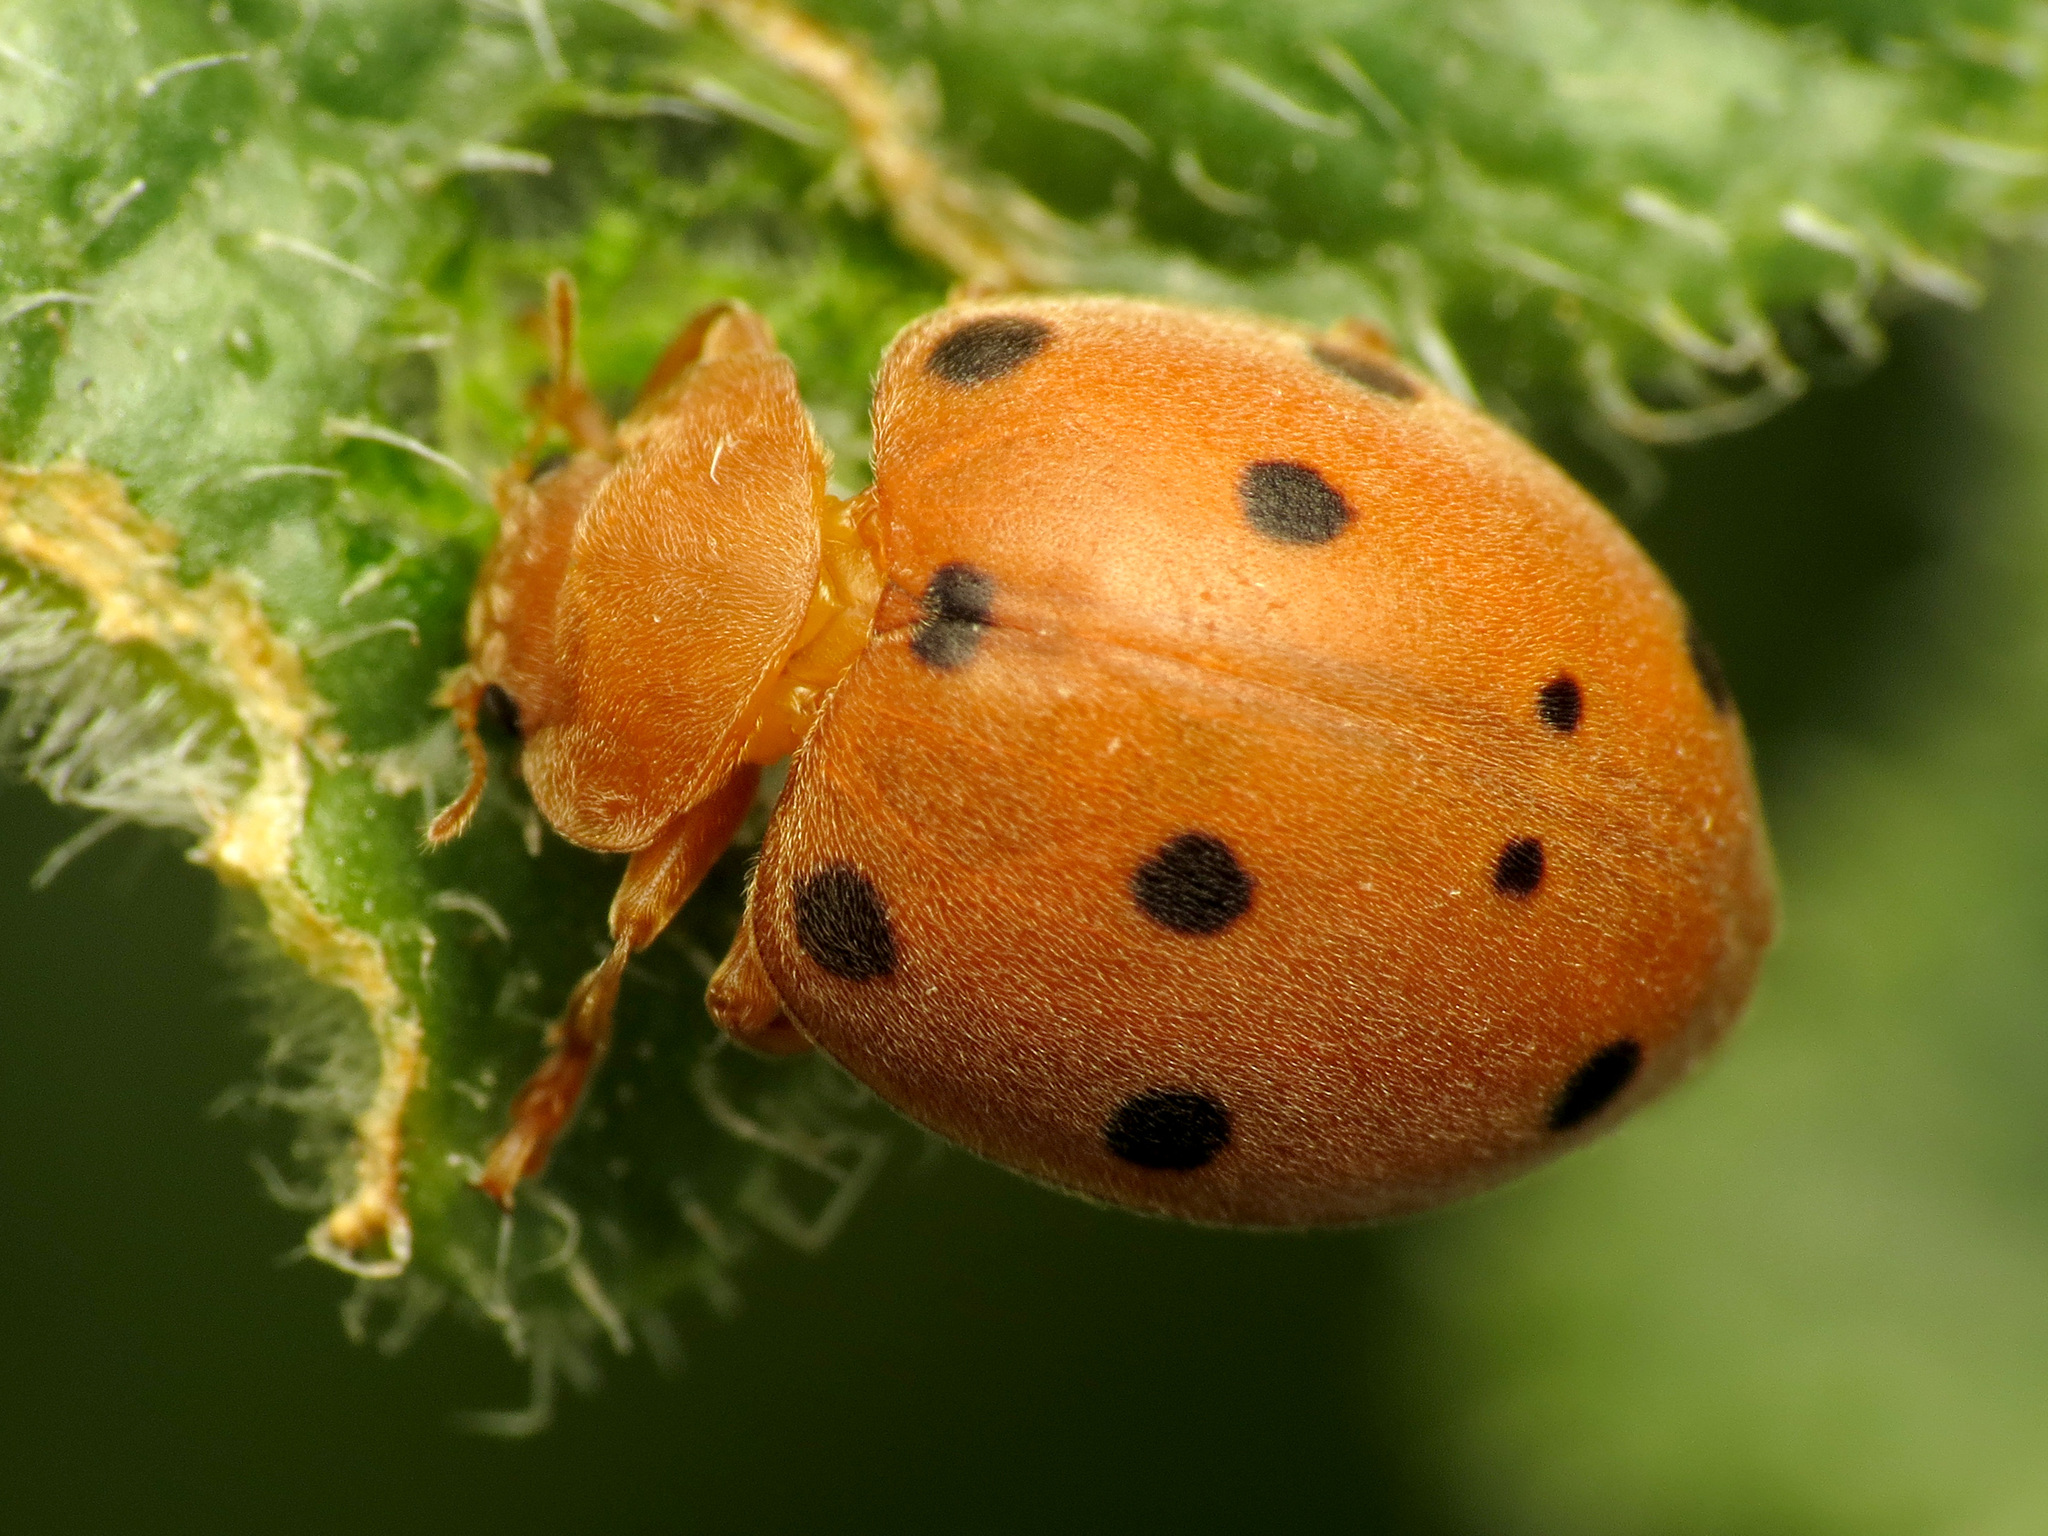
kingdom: Animalia
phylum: Arthropoda
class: Insecta
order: Coleoptera
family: Coccinellidae
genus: Henosepilachna
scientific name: Henosepilachna
